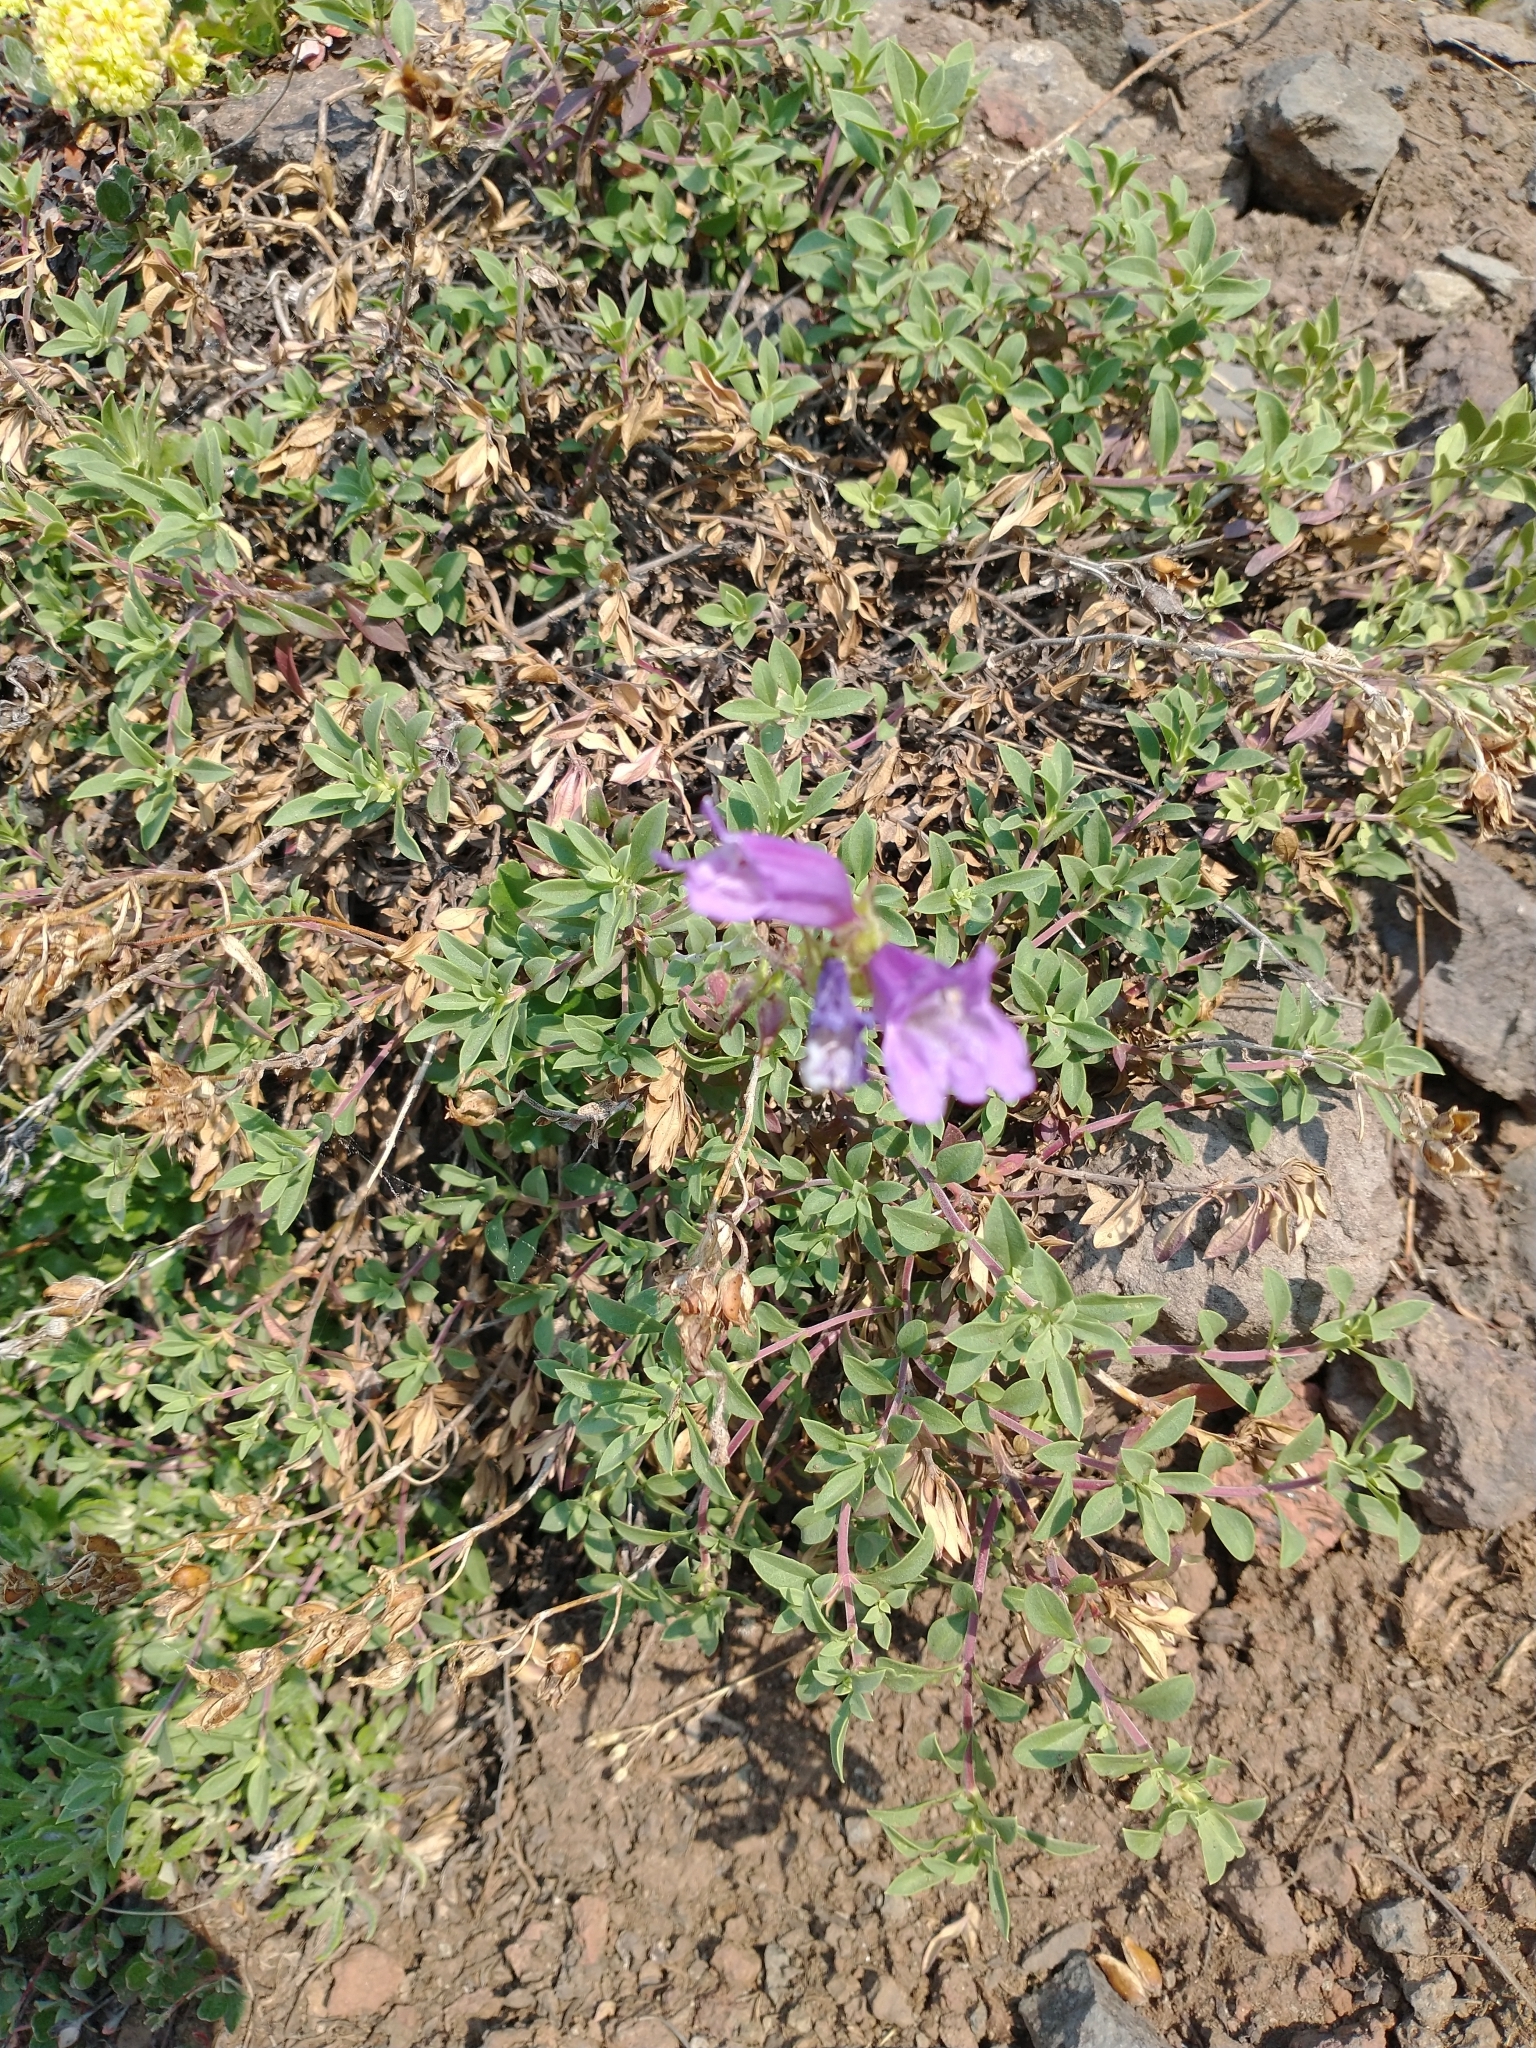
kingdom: Plantae
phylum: Tracheophyta
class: Magnoliopsida
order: Lamiales
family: Plantaginaceae
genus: Penstemon
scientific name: Penstemon davidsonii
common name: Davidson's penstemon
